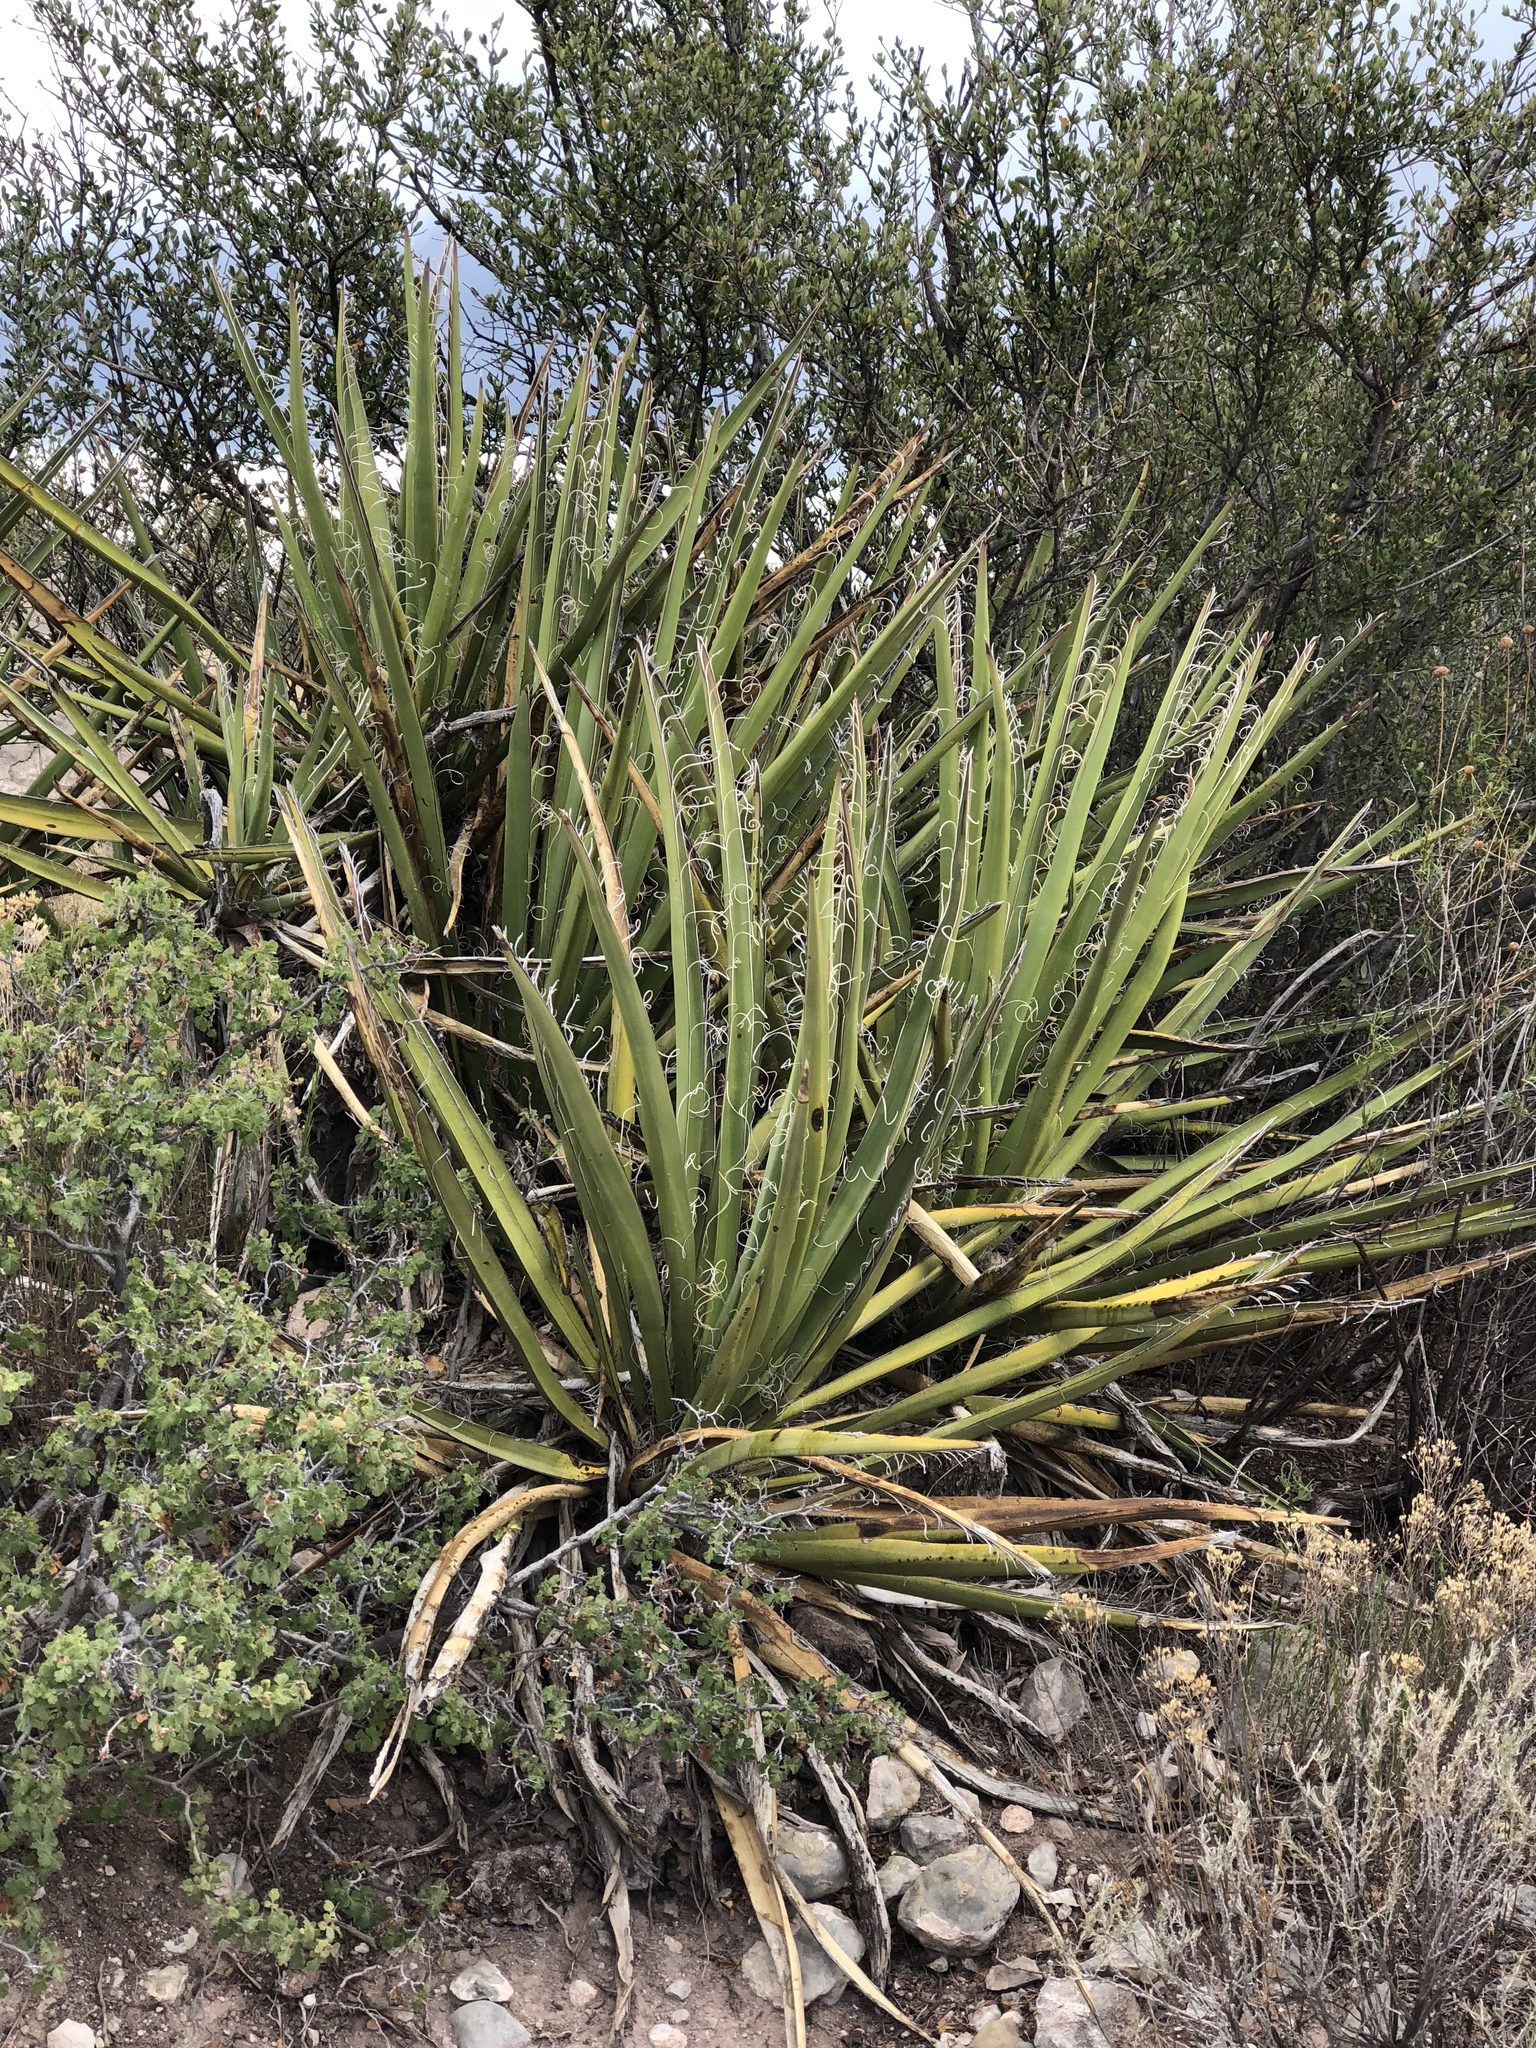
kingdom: Plantae
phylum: Tracheophyta
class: Liliopsida
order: Asparagales
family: Asparagaceae
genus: Yucca
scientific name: Yucca baccata
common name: Banana yucca
